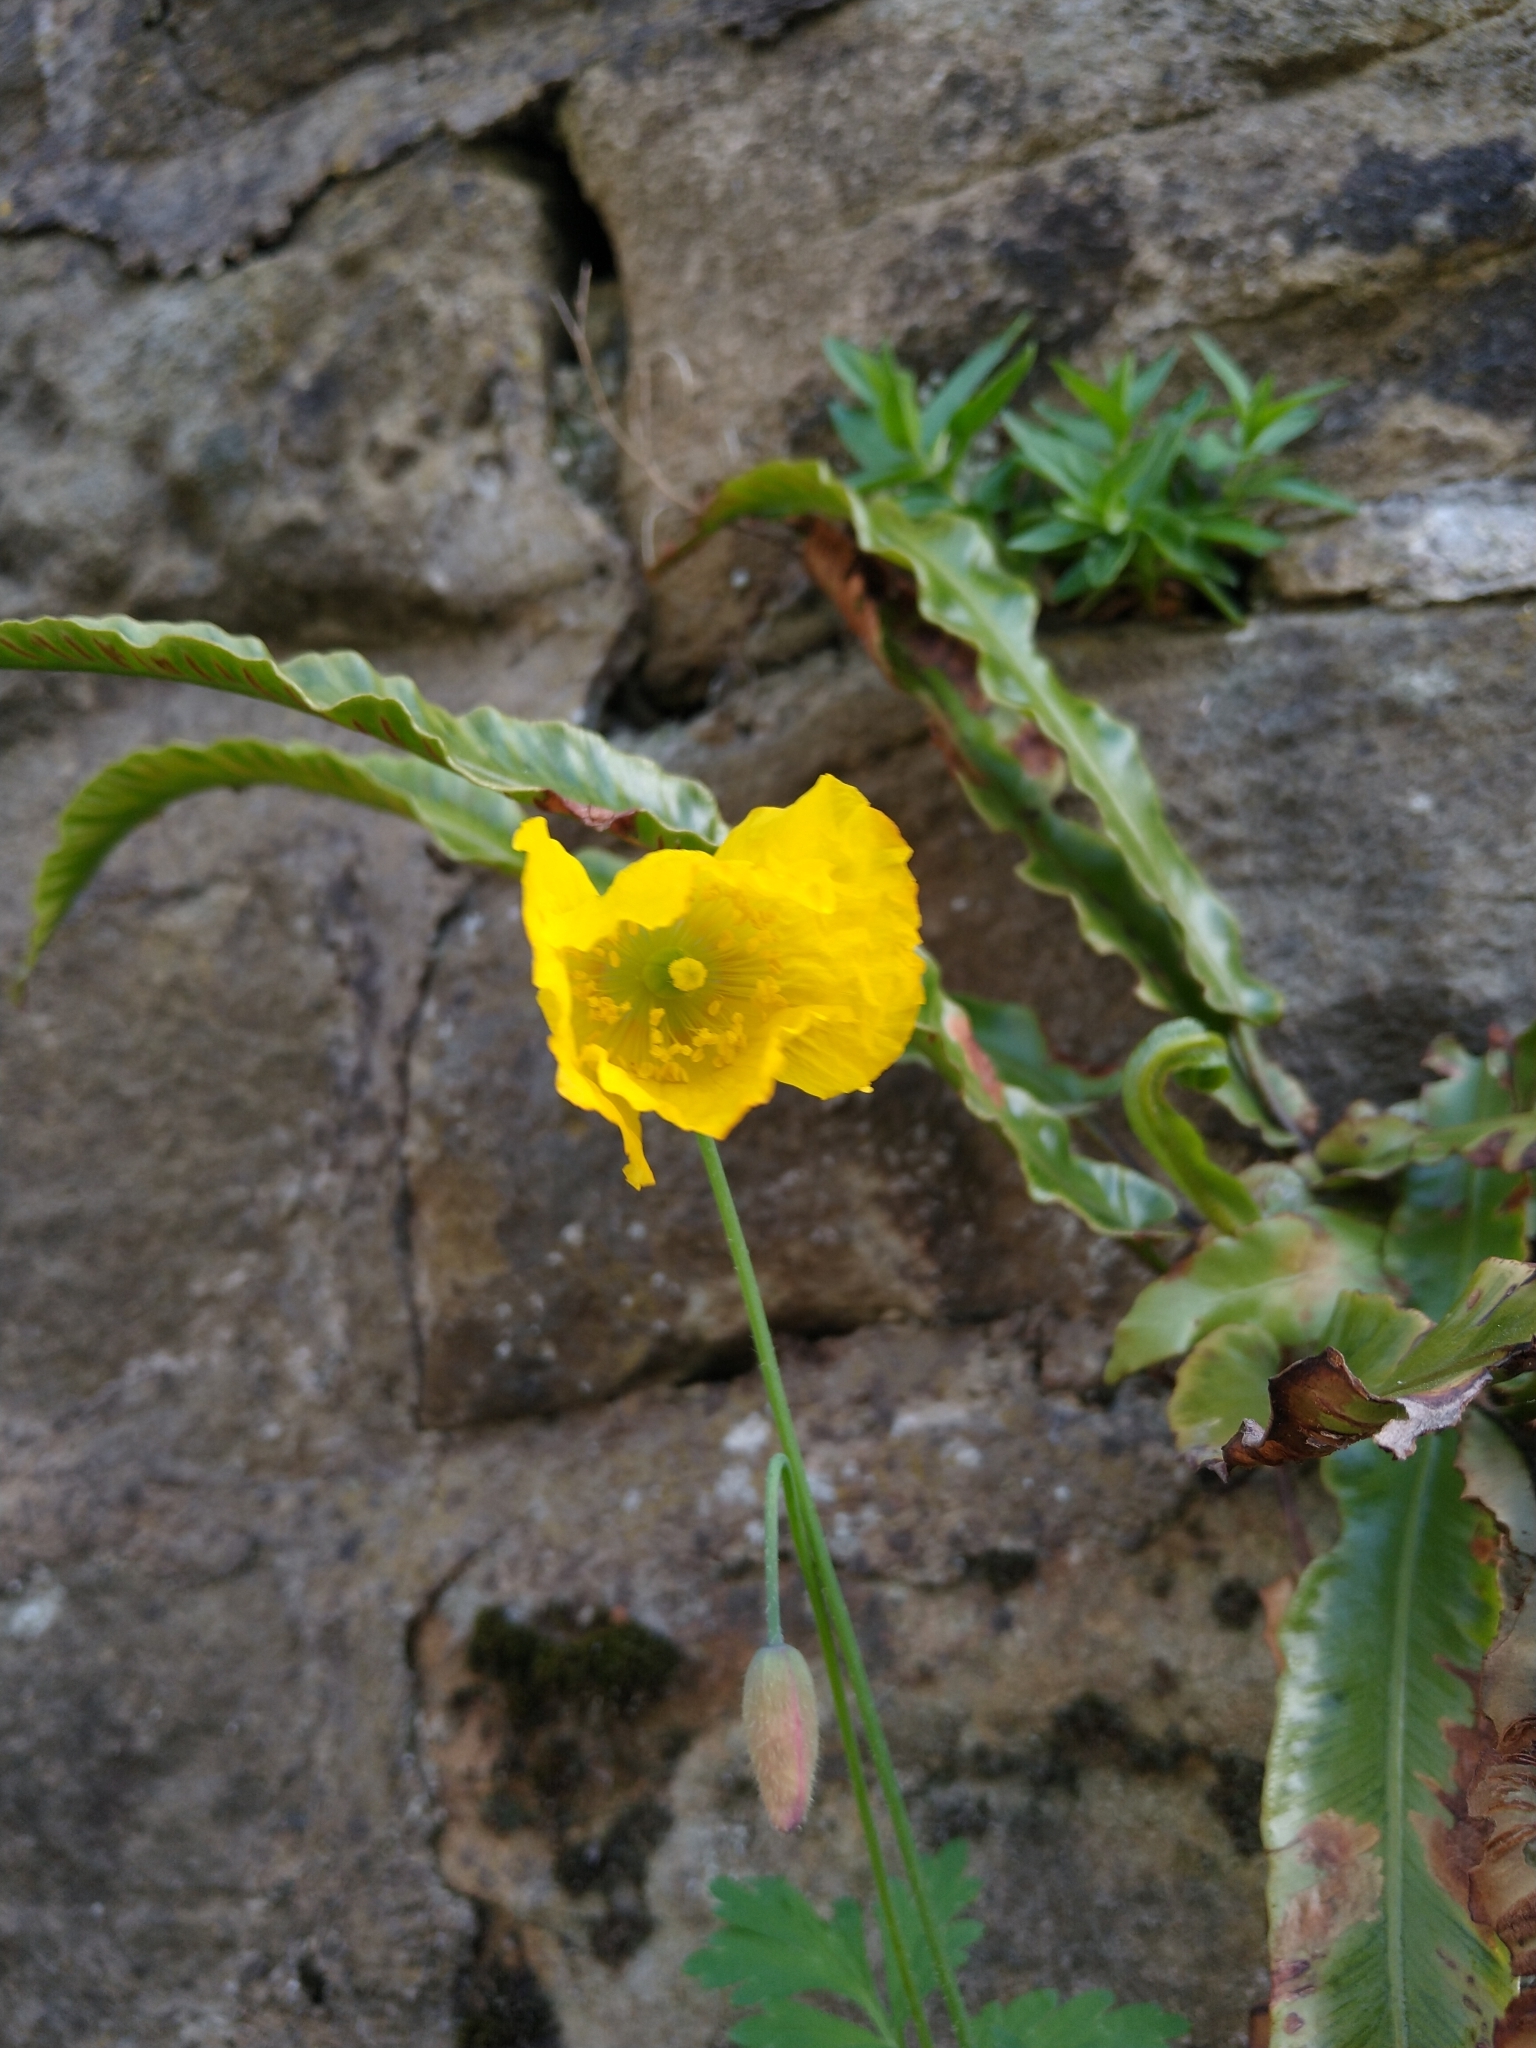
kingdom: Plantae
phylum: Tracheophyta
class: Magnoliopsida
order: Ranunculales
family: Papaveraceae
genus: Papaver
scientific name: Papaver cambricum
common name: Poppy
